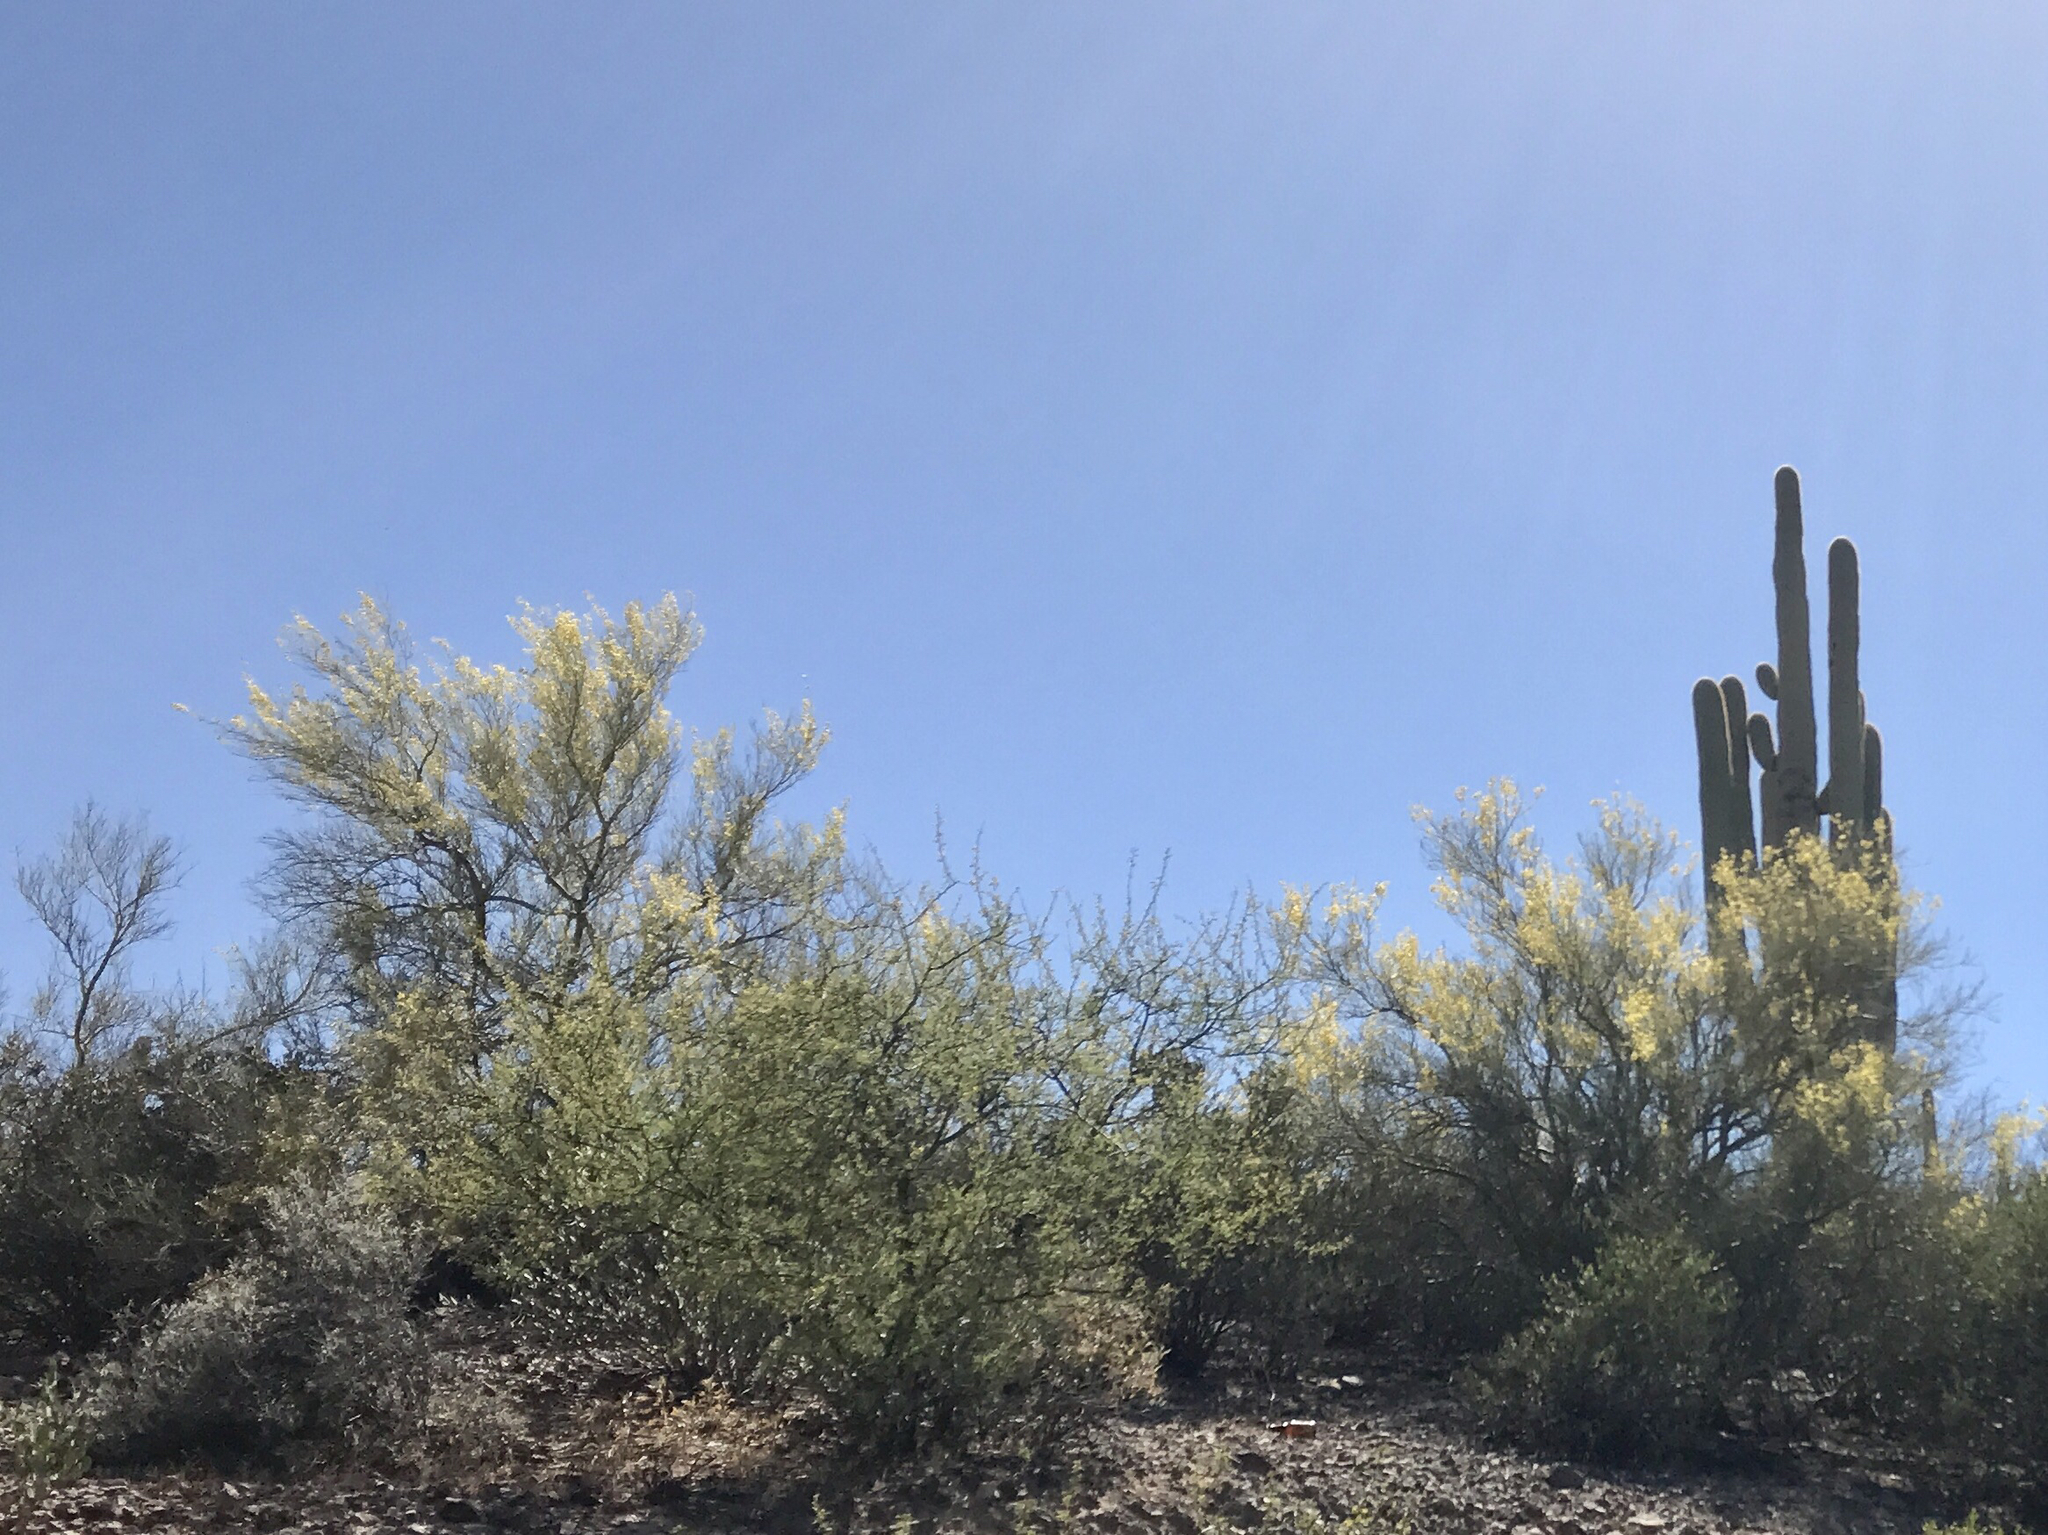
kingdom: Plantae
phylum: Tracheophyta
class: Magnoliopsida
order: Fabales
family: Fabaceae
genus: Parkinsonia
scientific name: Parkinsonia microphylla
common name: Yellow paloverde
